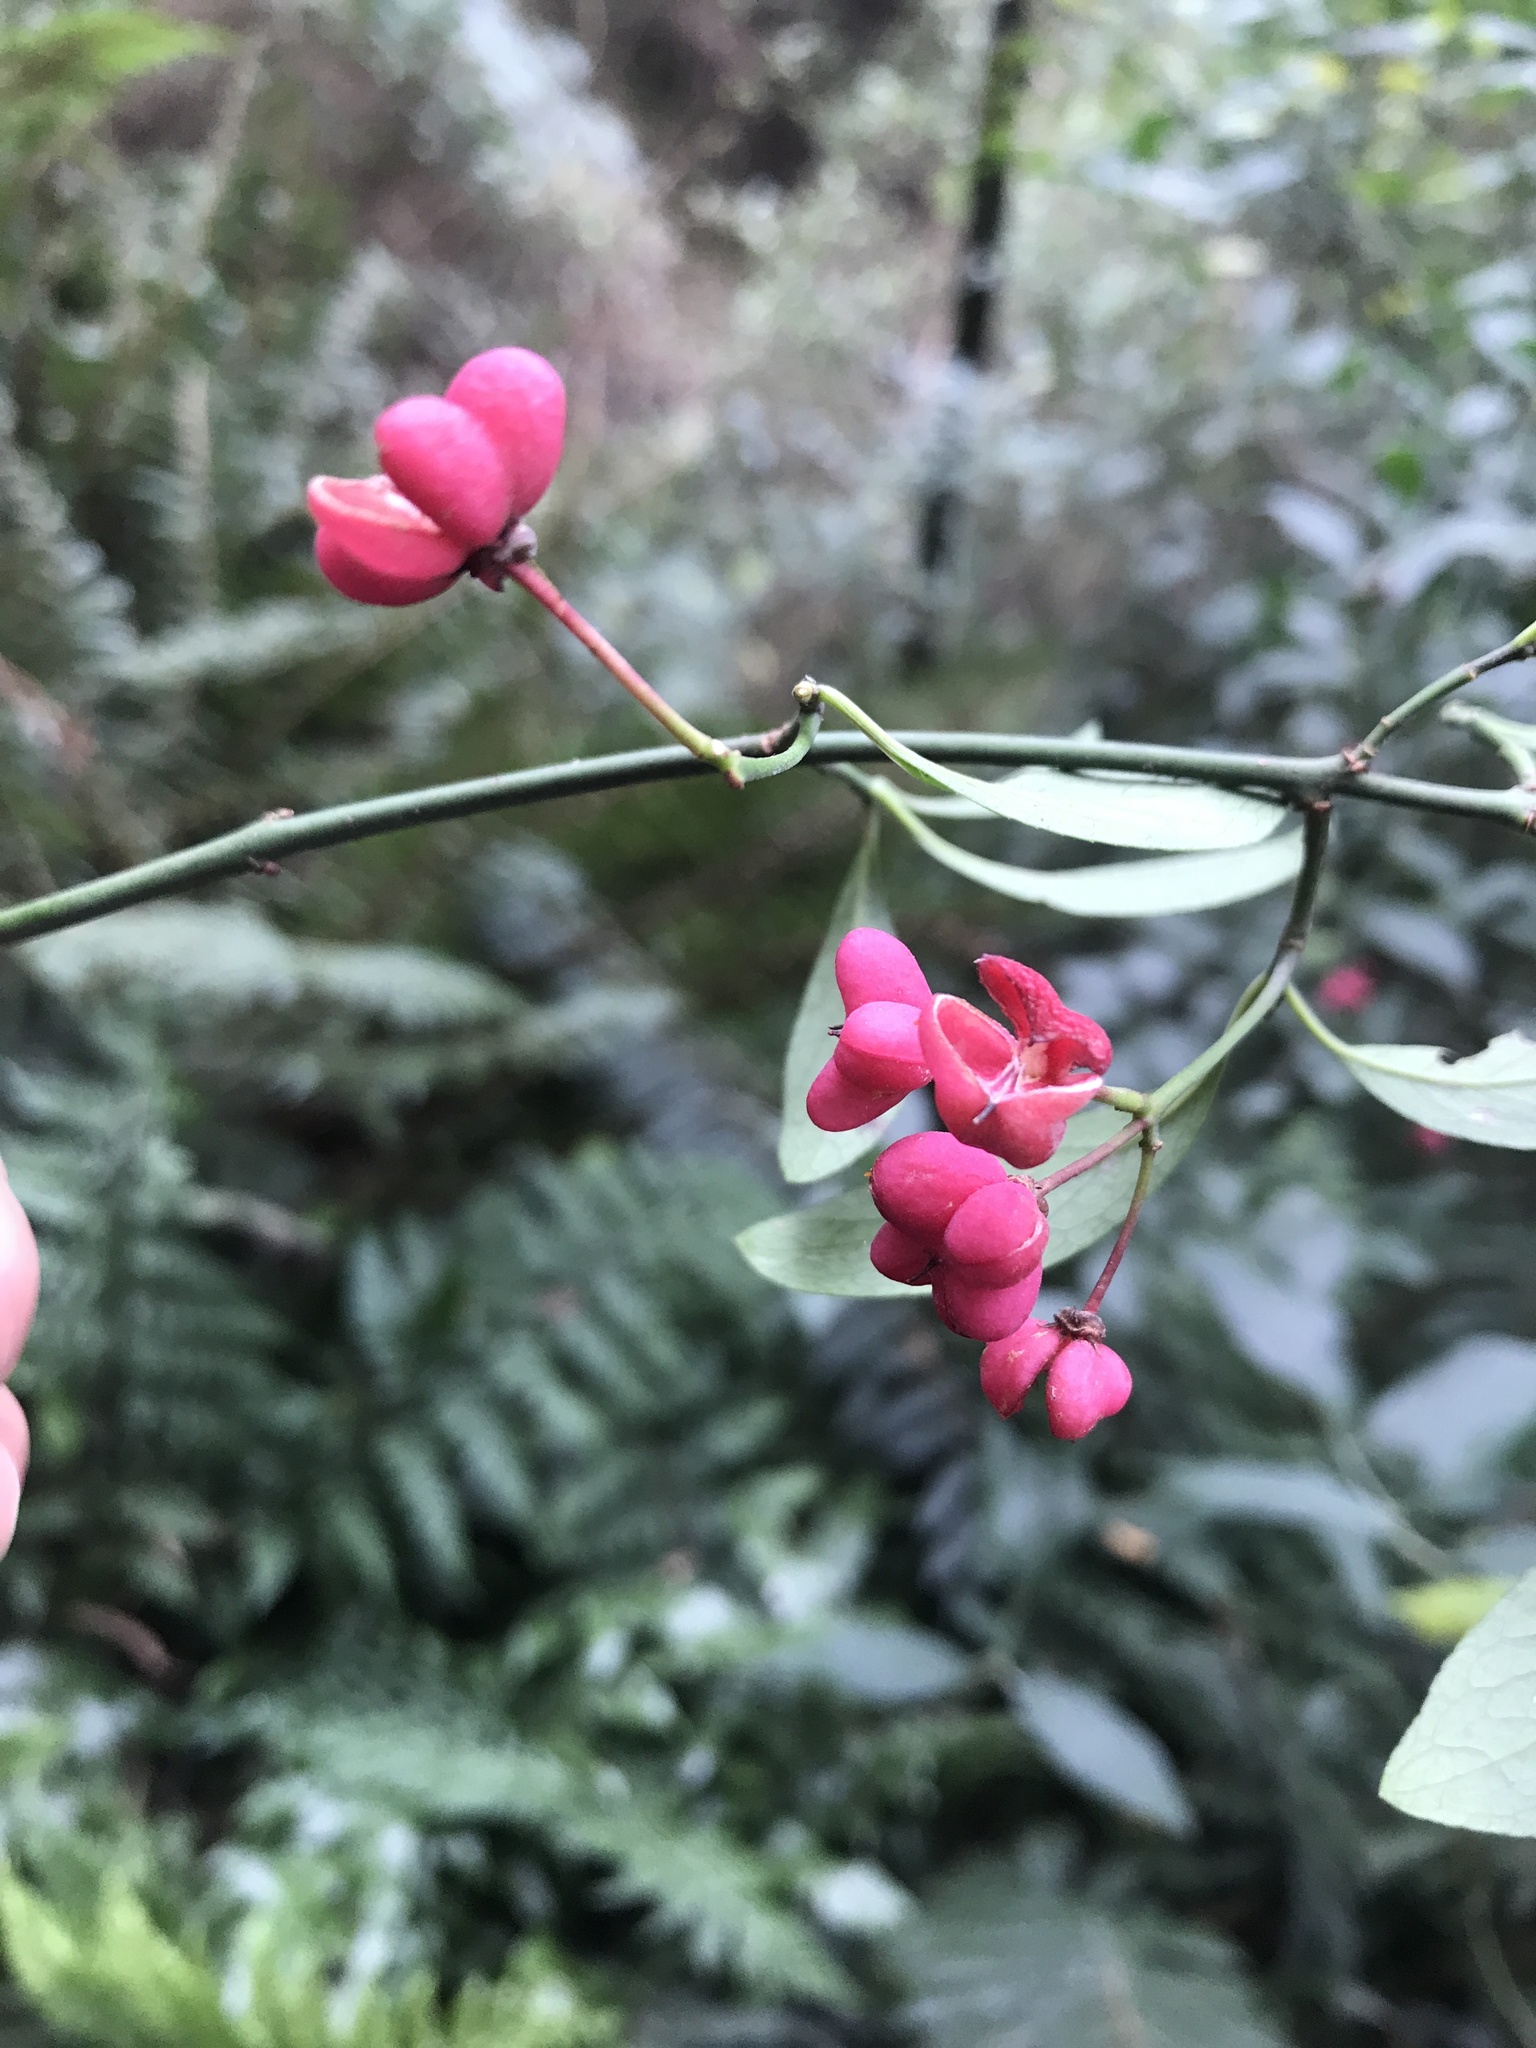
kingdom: Plantae
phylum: Tracheophyta
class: Magnoliopsida
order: Celastrales
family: Celastraceae
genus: Euonymus
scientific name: Euonymus europaeus
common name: Spindle
